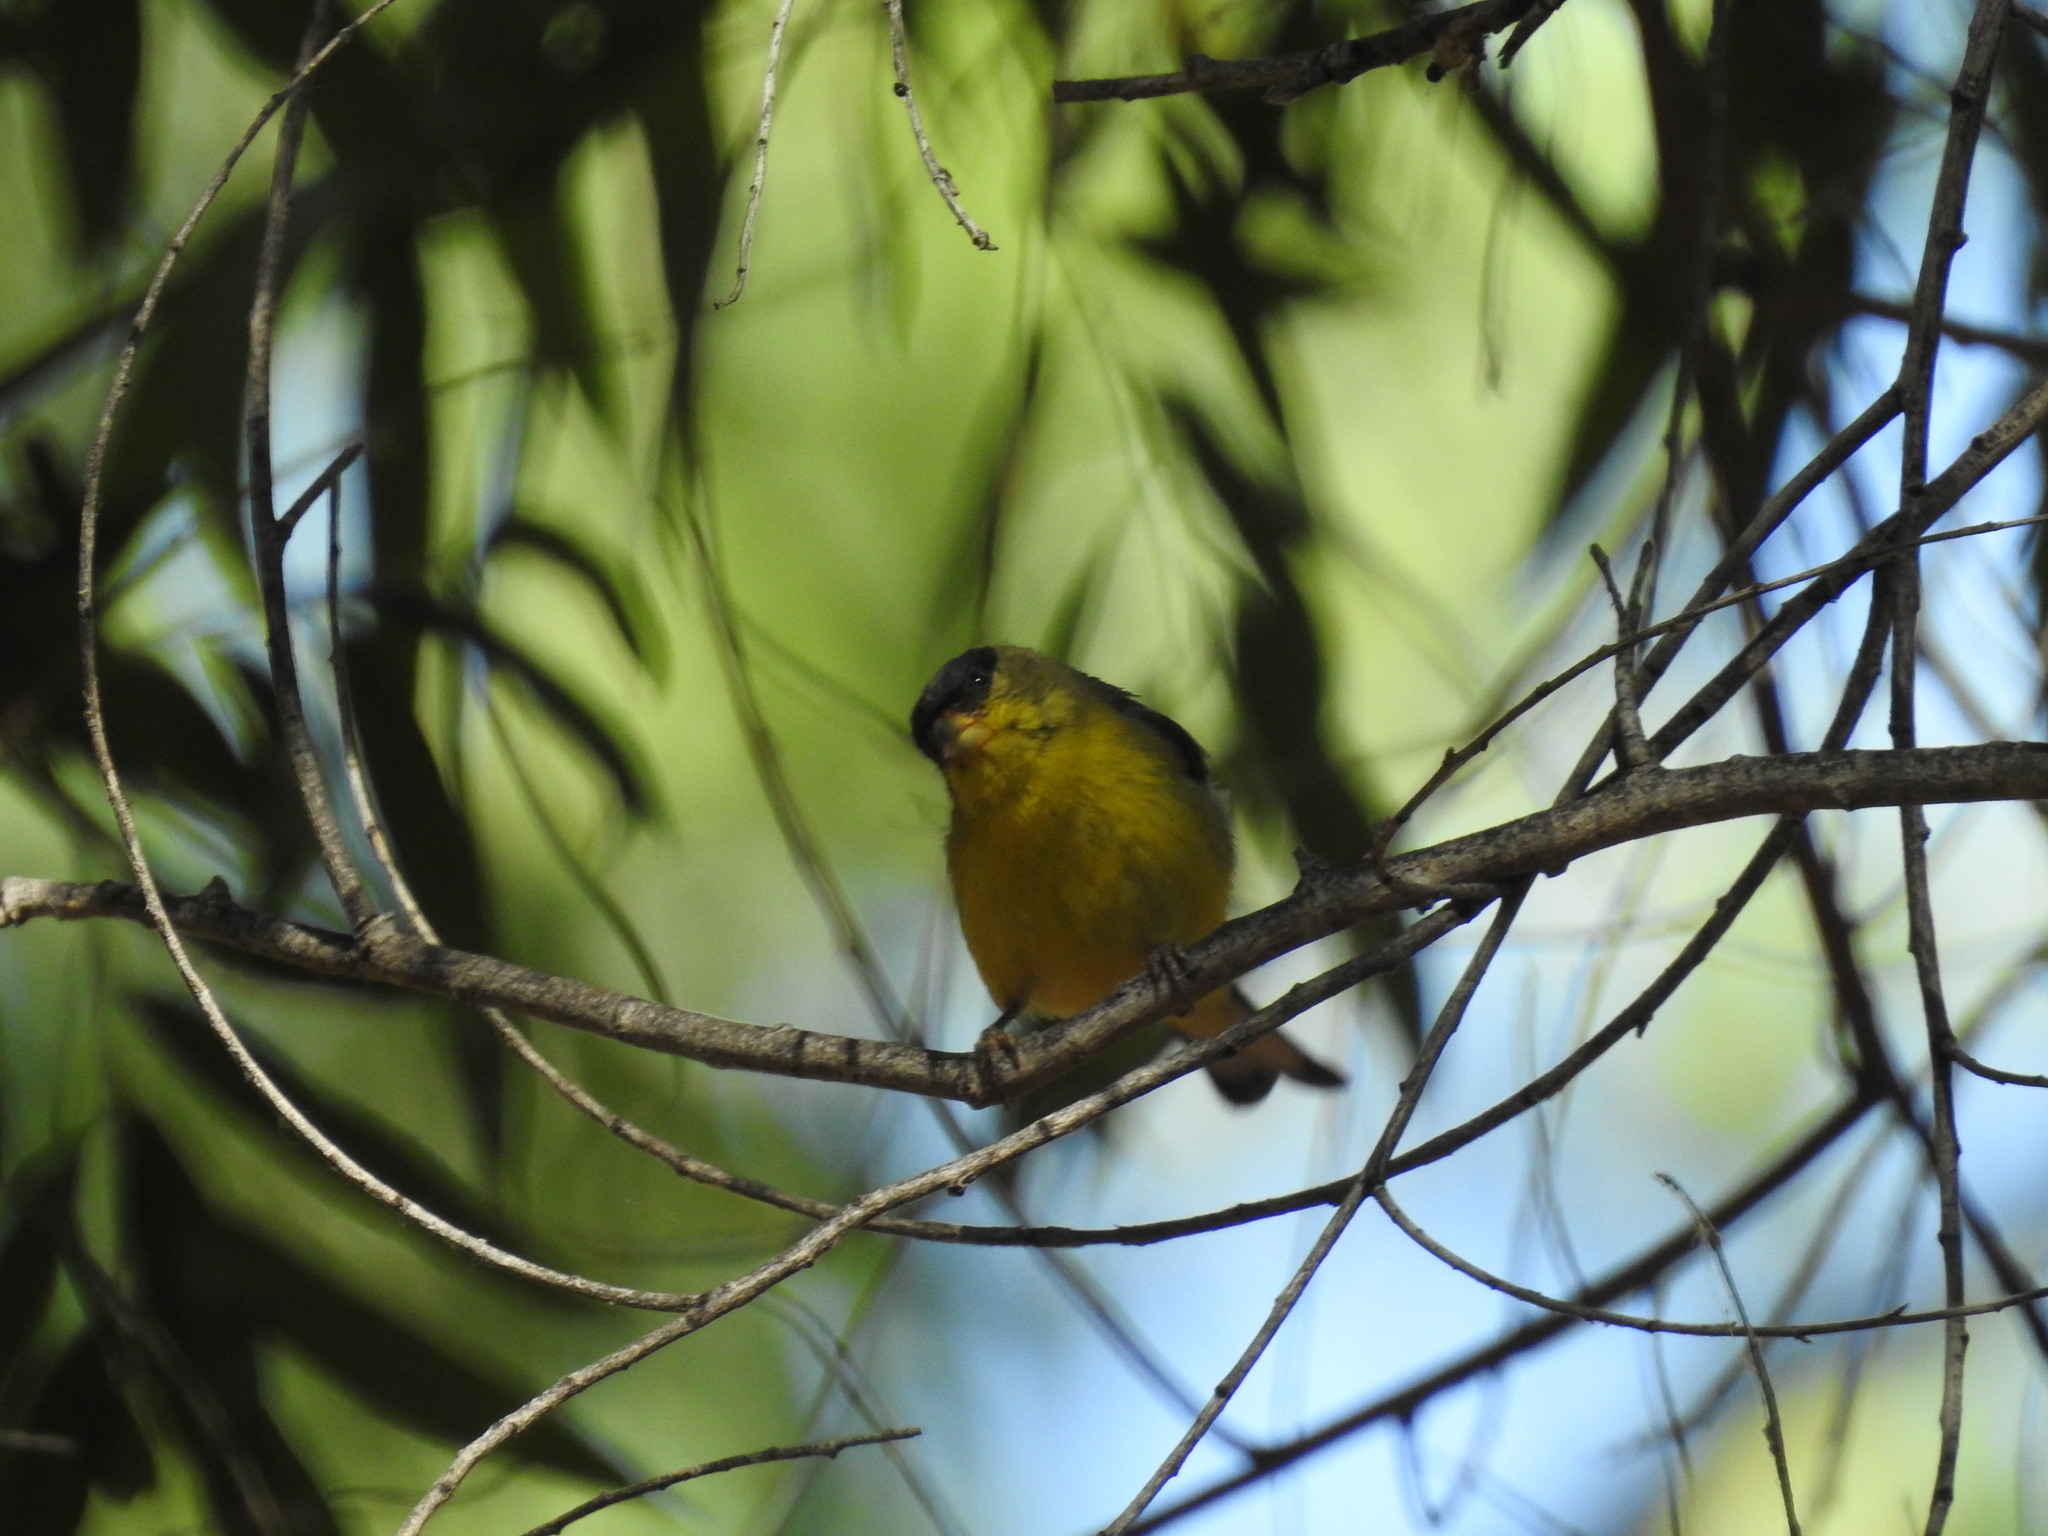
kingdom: Animalia
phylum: Chordata
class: Aves
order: Passeriformes
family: Fringillidae
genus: Spinus
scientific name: Spinus psaltria
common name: Lesser goldfinch
